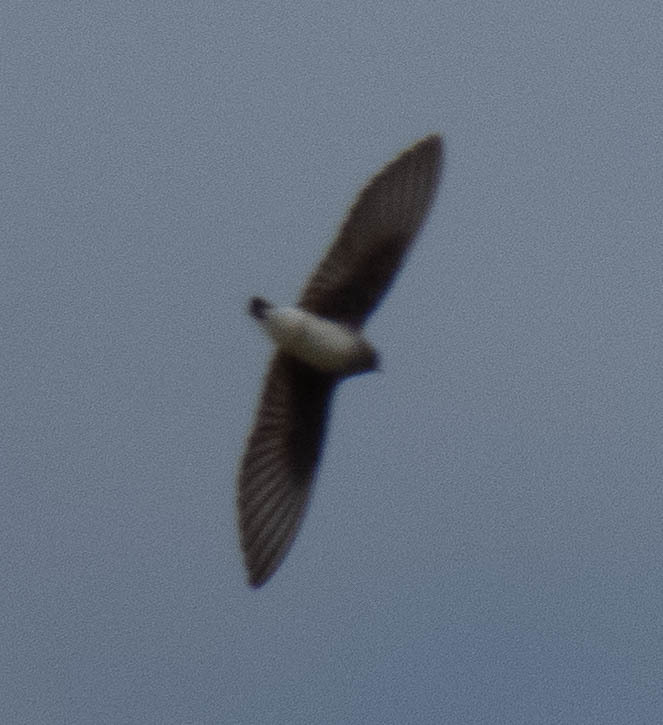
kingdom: Animalia
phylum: Chordata
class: Aves
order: Passeriformes
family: Hirundinidae
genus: Stelgidopteryx
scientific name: Stelgidopteryx serripennis
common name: Northern rough-winged swallow
